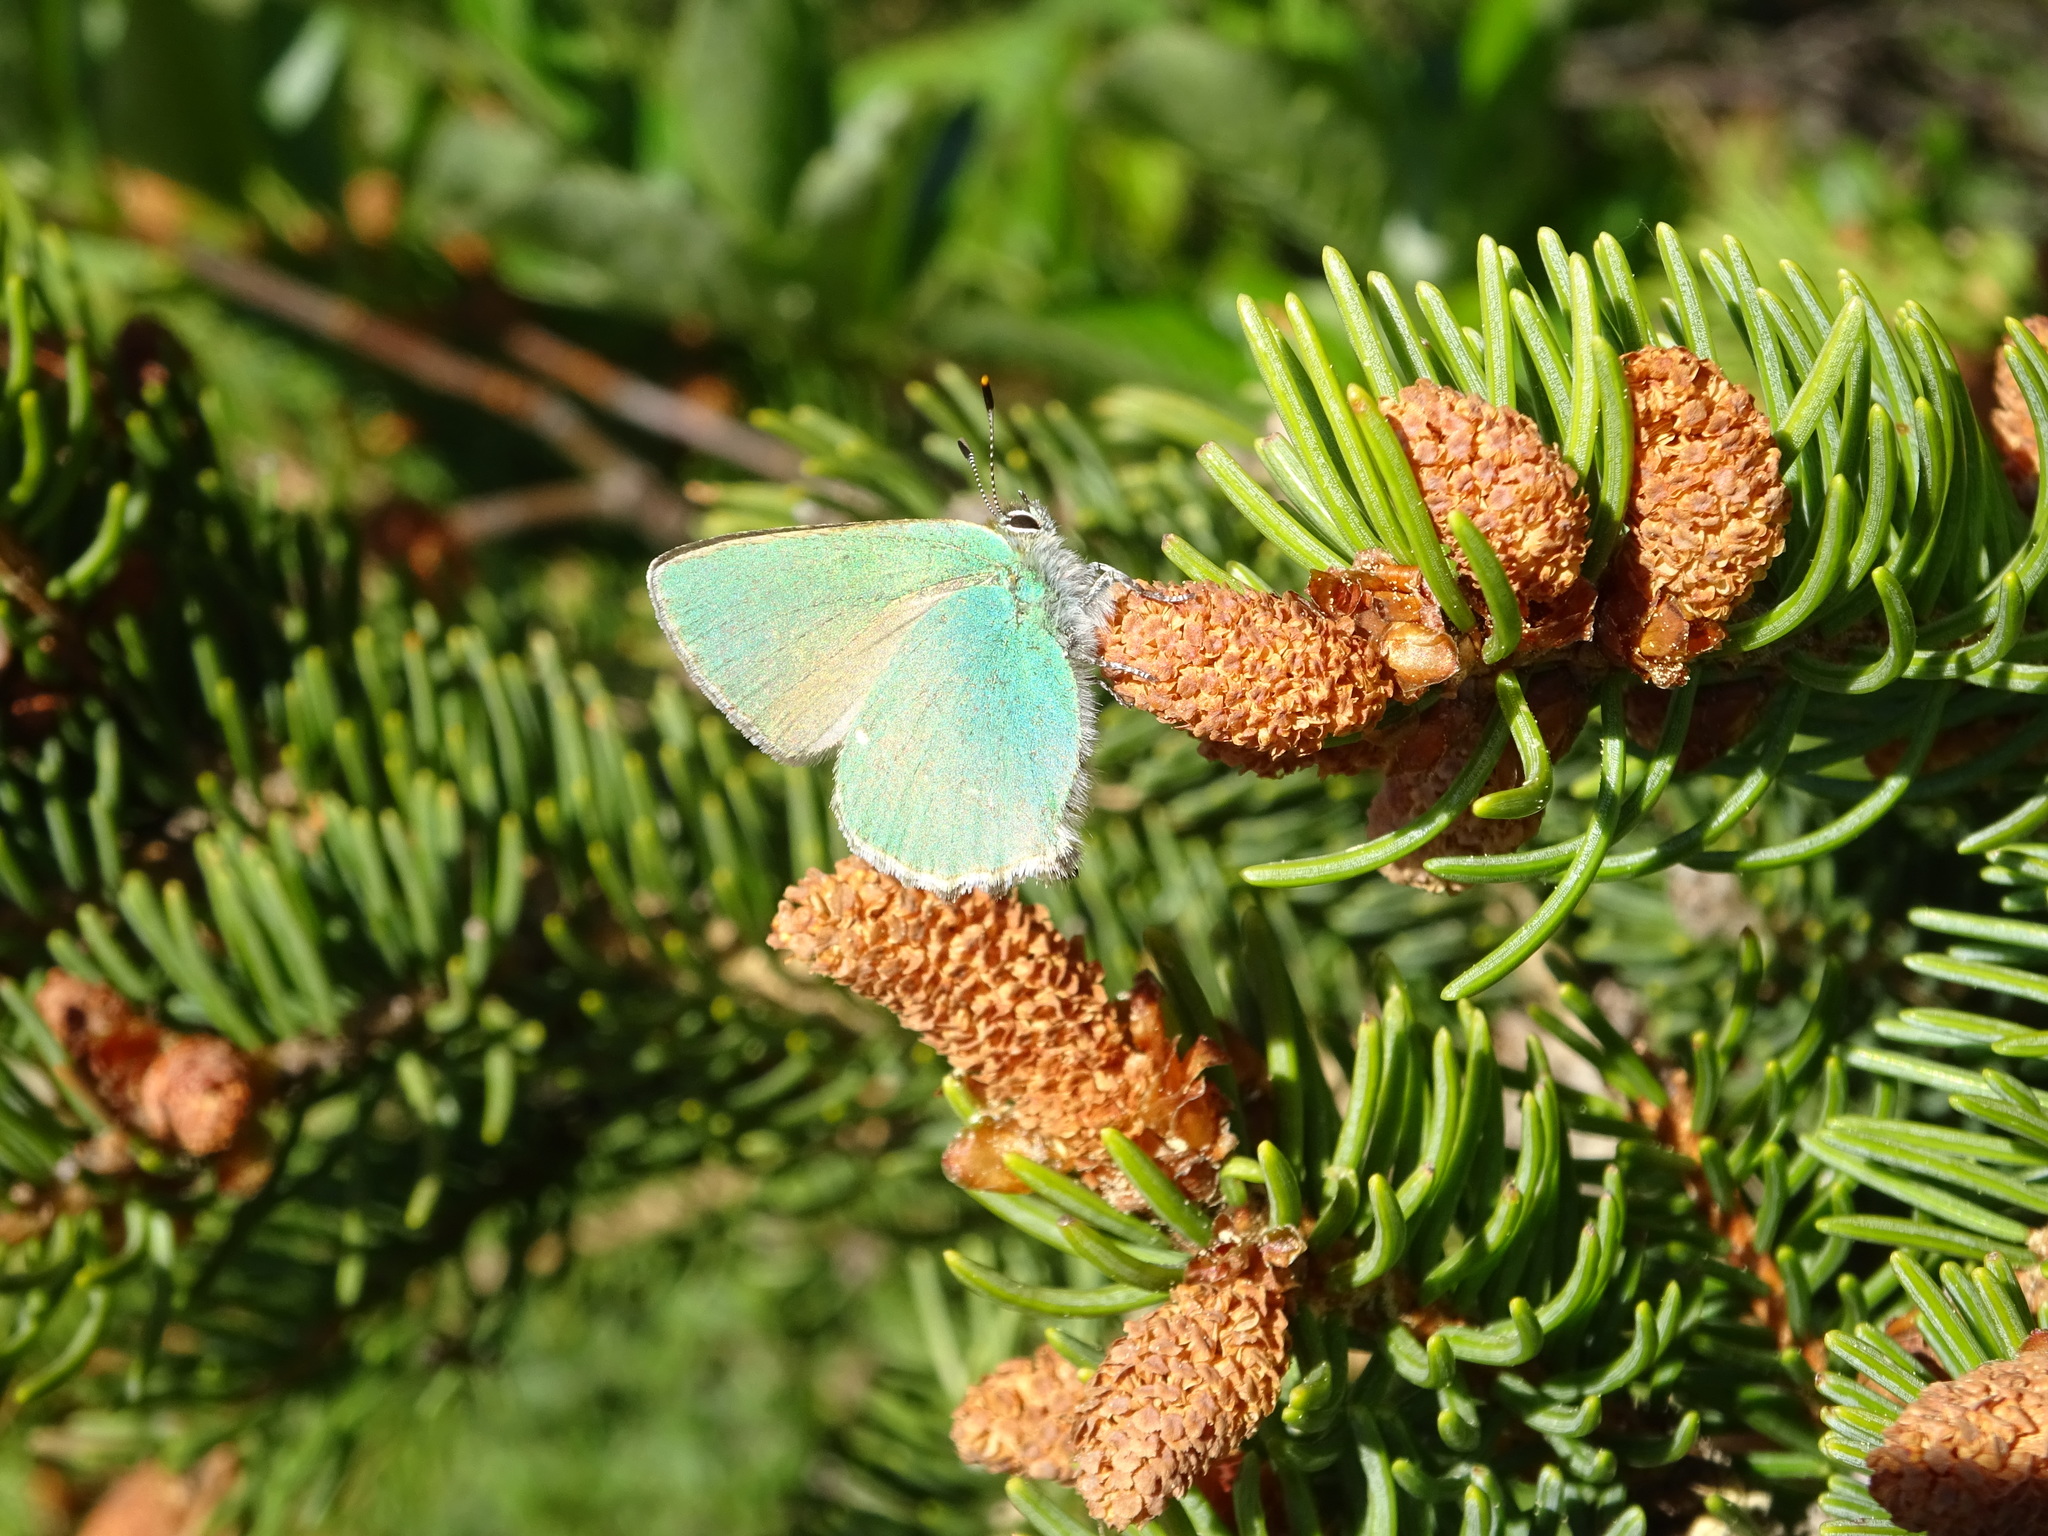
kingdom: Animalia
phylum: Arthropoda
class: Insecta
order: Lepidoptera
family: Lycaenidae
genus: Callophrys
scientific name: Callophrys rubi
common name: Green hairstreak
